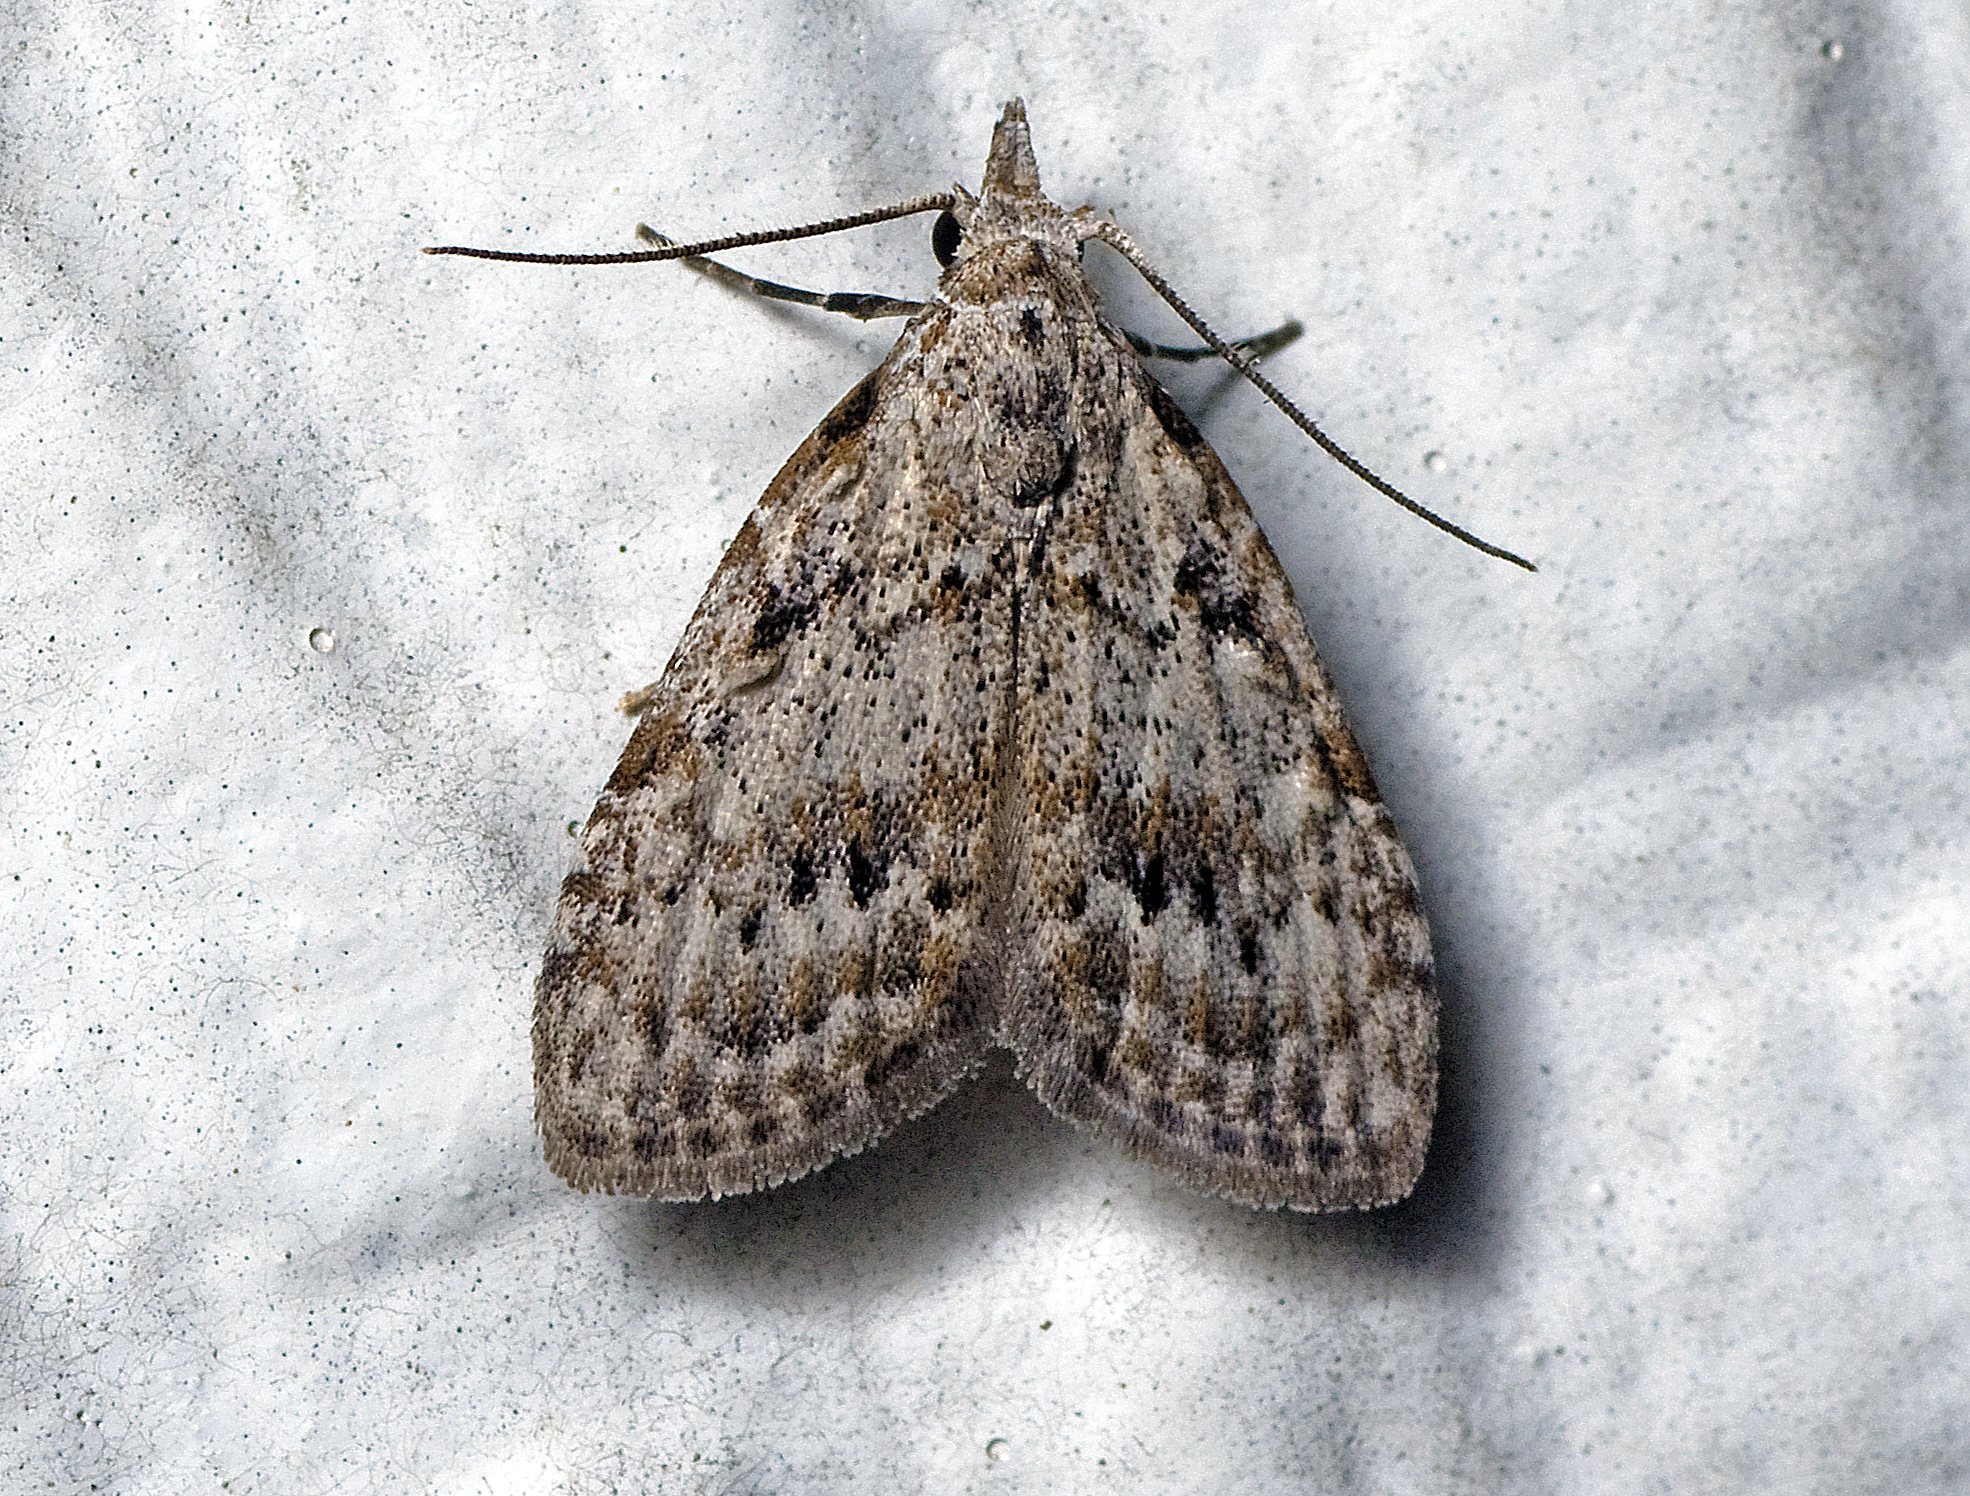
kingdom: Animalia
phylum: Arthropoda
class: Insecta
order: Lepidoptera
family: Nolidae
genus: Nola
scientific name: Nola squalida
